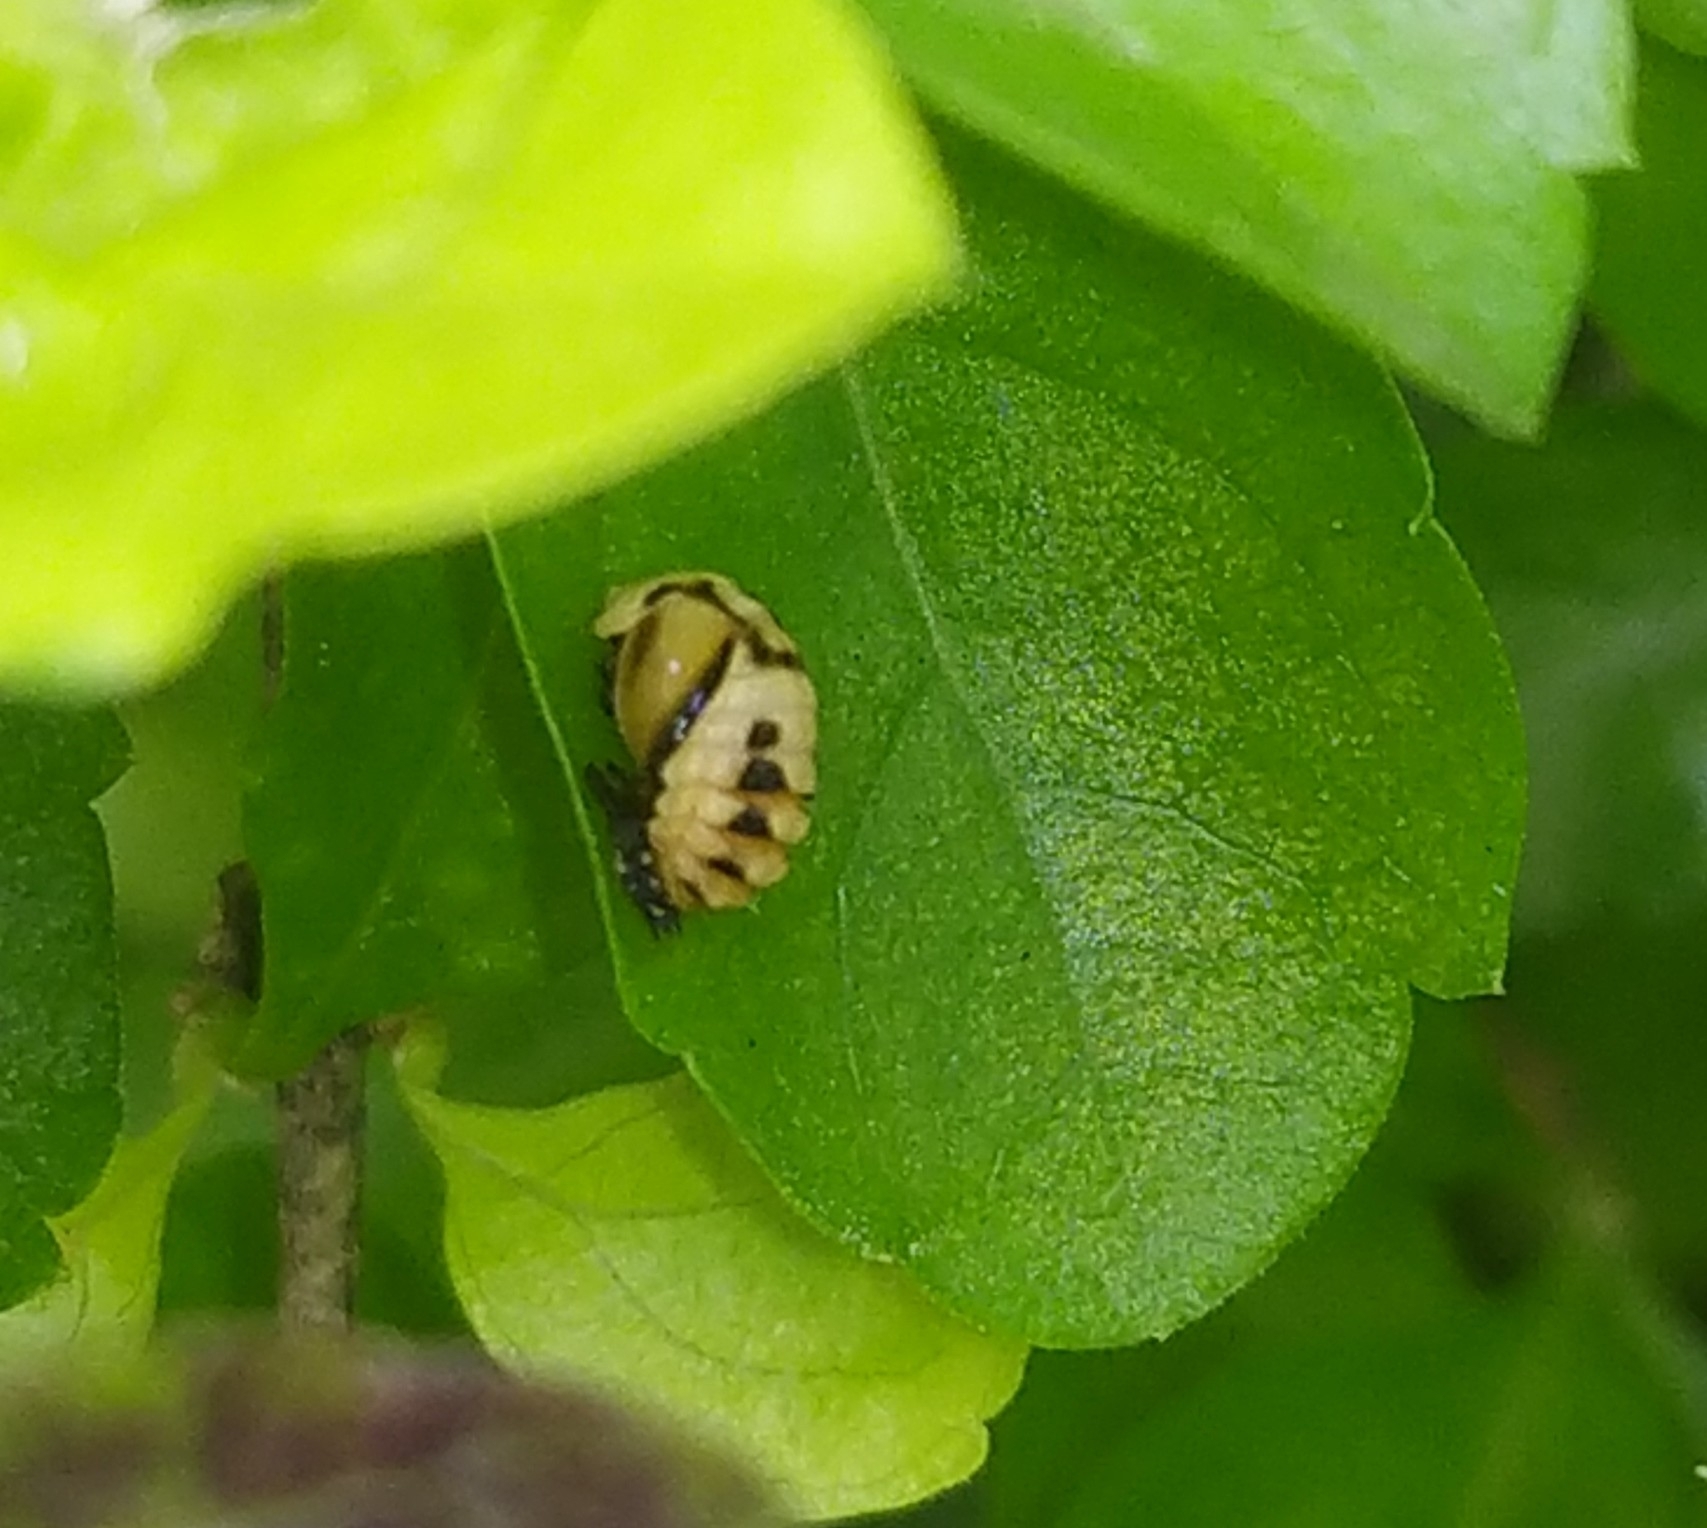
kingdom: Animalia
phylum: Arthropoda
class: Insecta
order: Coleoptera
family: Coccinellidae
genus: Cheilomenes
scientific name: Cheilomenes sexmaculata
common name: Ladybird beetle
